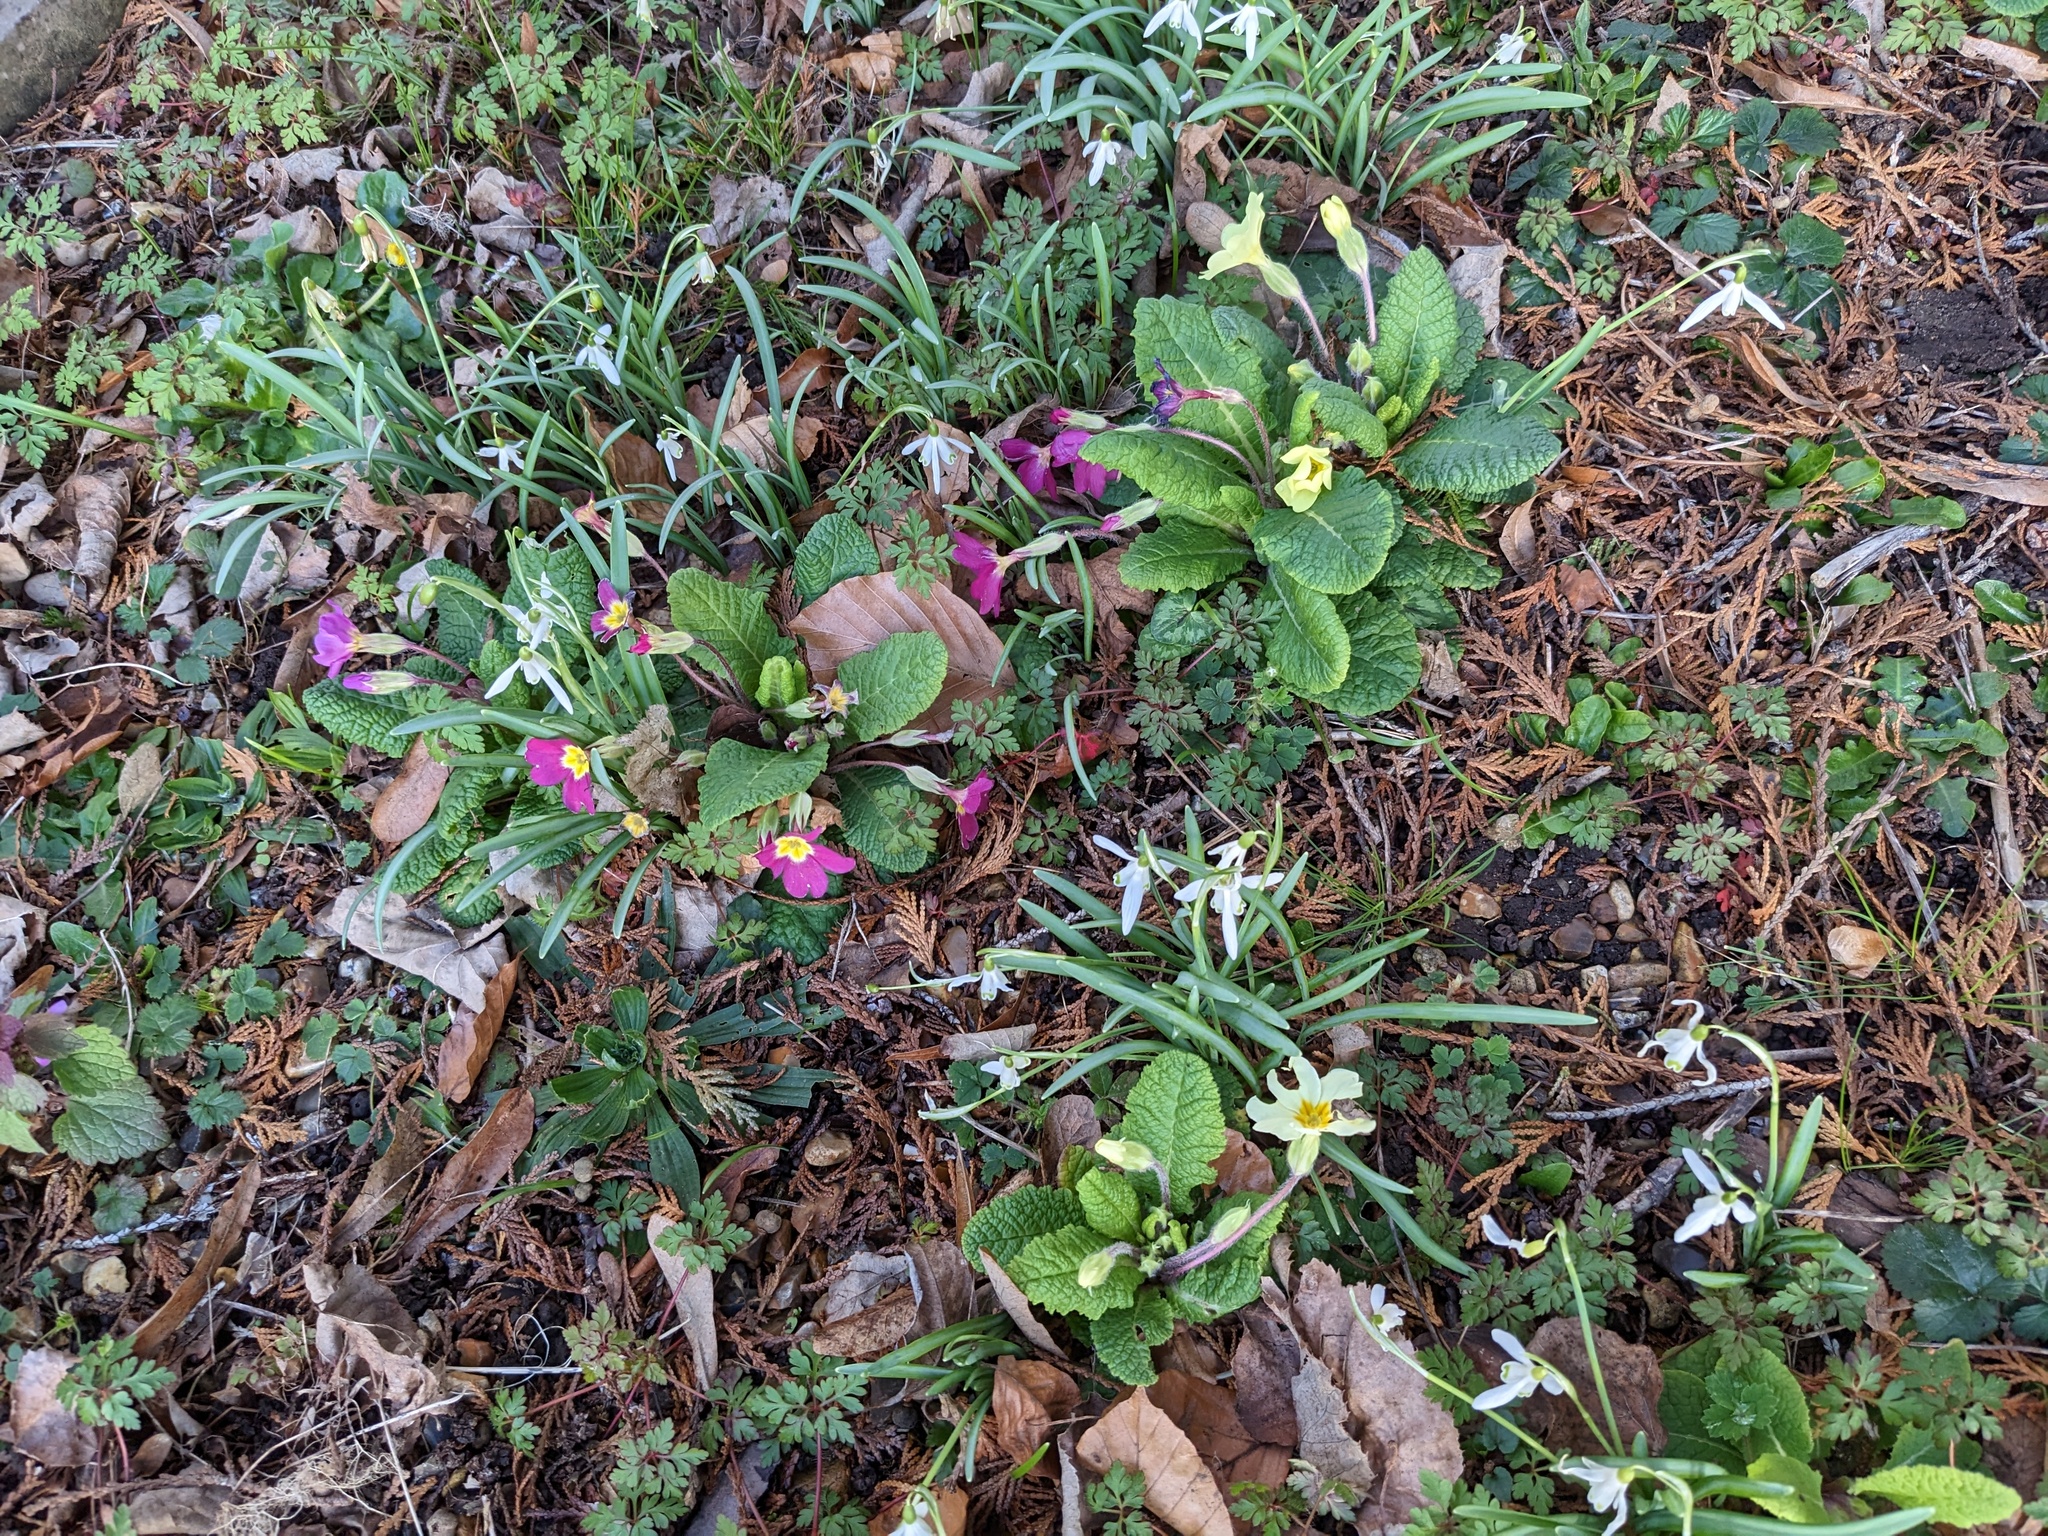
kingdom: Plantae
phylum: Tracheophyta
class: Magnoliopsida
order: Ericales
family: Primulaceae
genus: Primula
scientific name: Primula vulgaris
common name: Primrose
